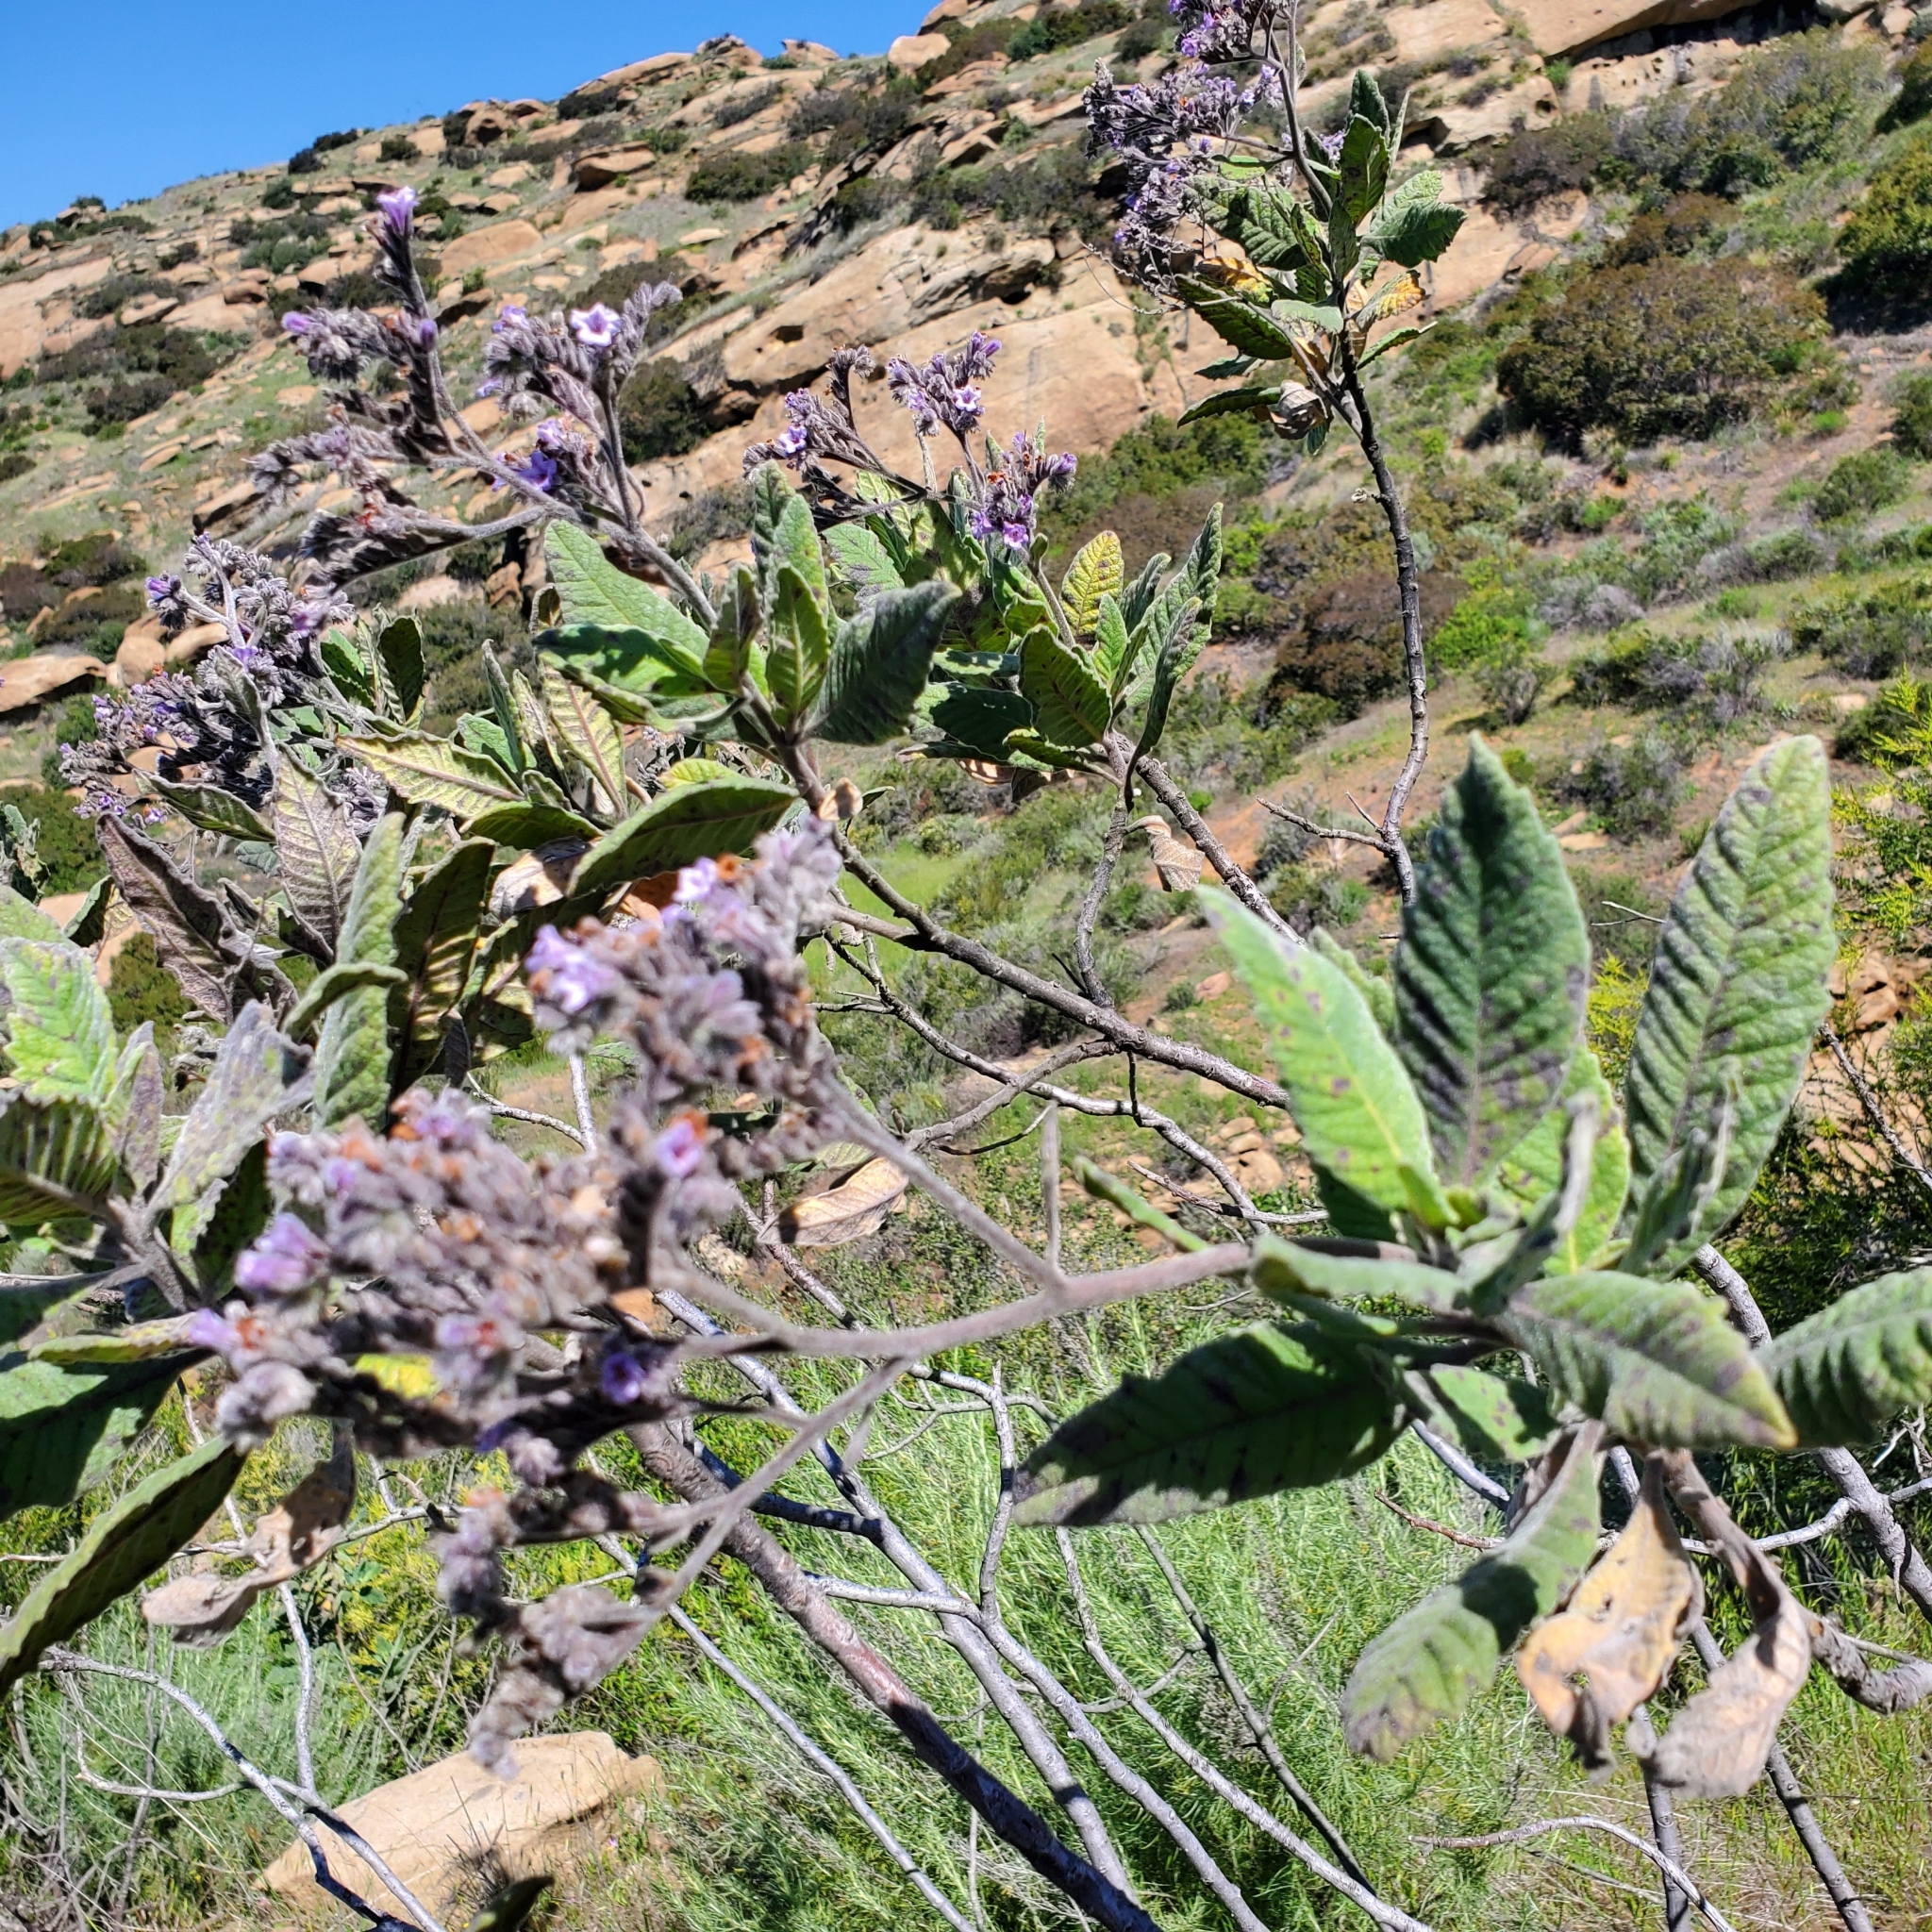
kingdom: Plantae
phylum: Tracheophyta
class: Magnoliopsida
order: Boraginales
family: Namaceae
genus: Eriodictyon
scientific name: Eriodictyon crassifolium
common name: Thick-leaf yerba-santa
